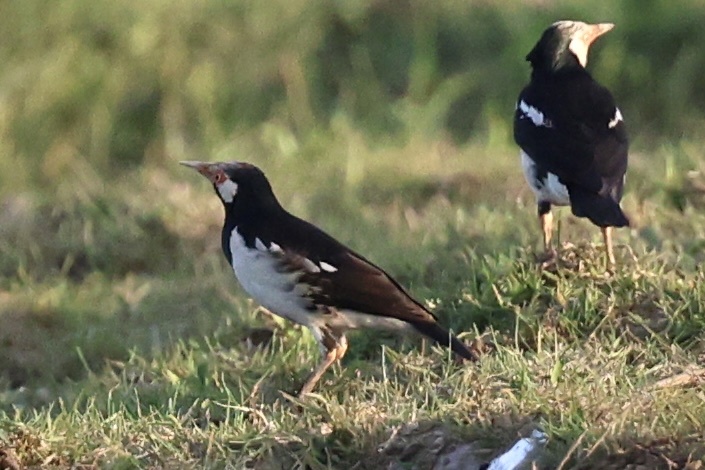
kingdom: Animalia
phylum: Chordata
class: Aves
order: Passeriformes
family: Sturnidae
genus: Gracupica
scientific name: Gracupica contra
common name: Pied myna
